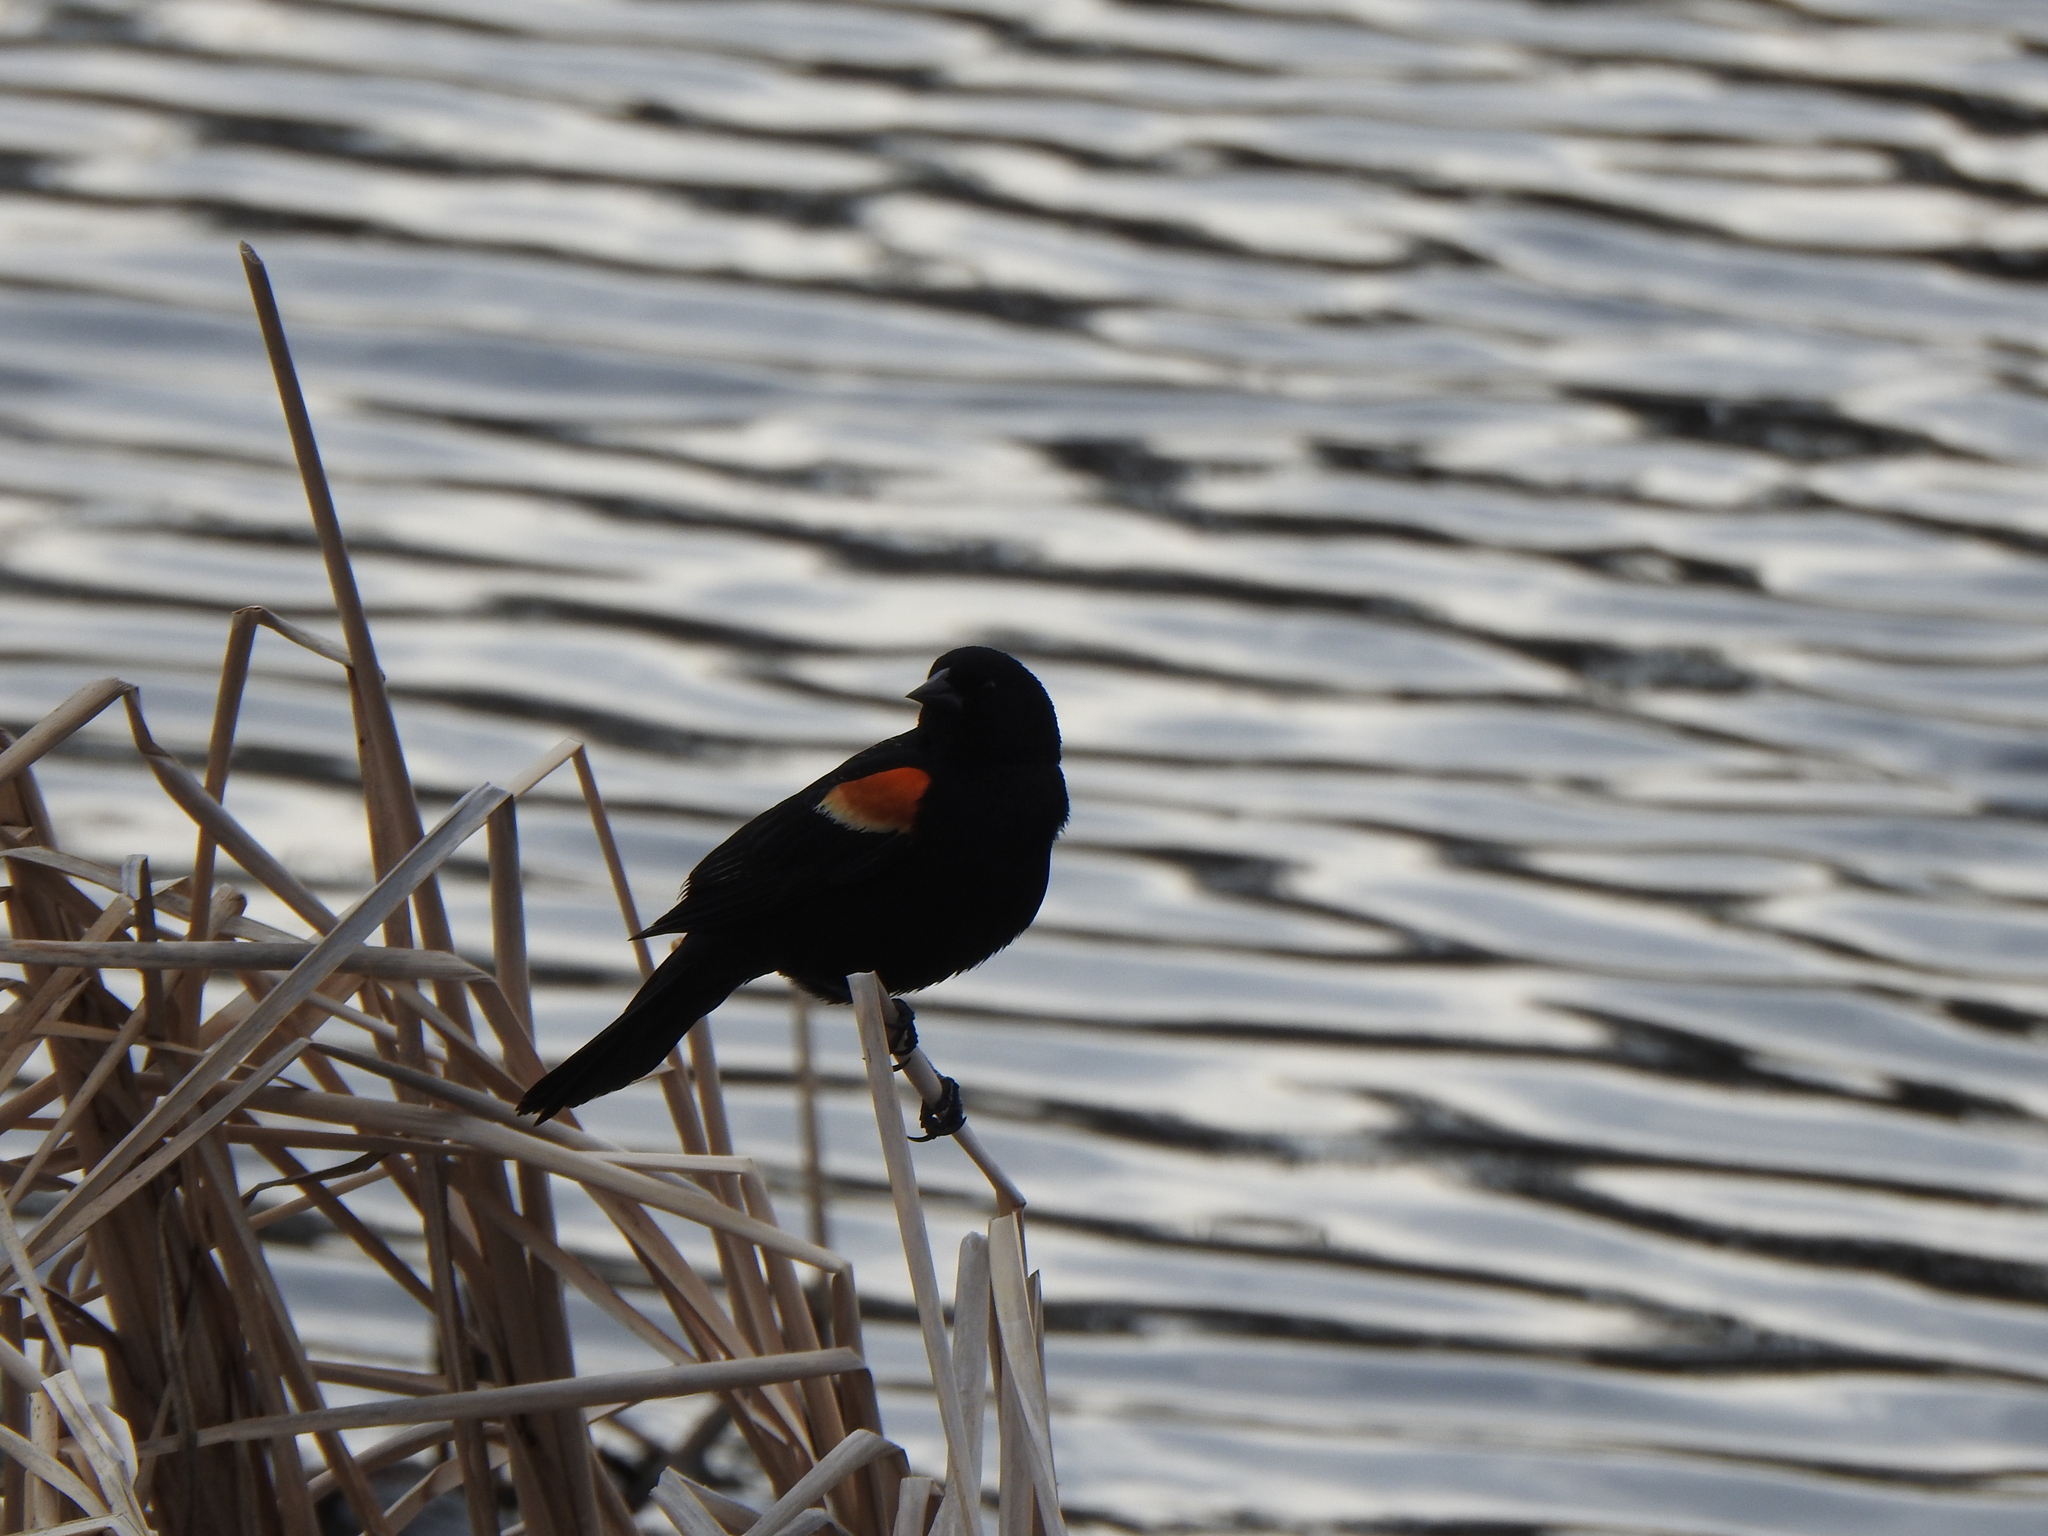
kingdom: Animalia
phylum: Chordata
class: Aves
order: Passeriformes
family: Icteridae
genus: Agelaius
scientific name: Agelaius phoeniceus
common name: Red-winged blackbird
